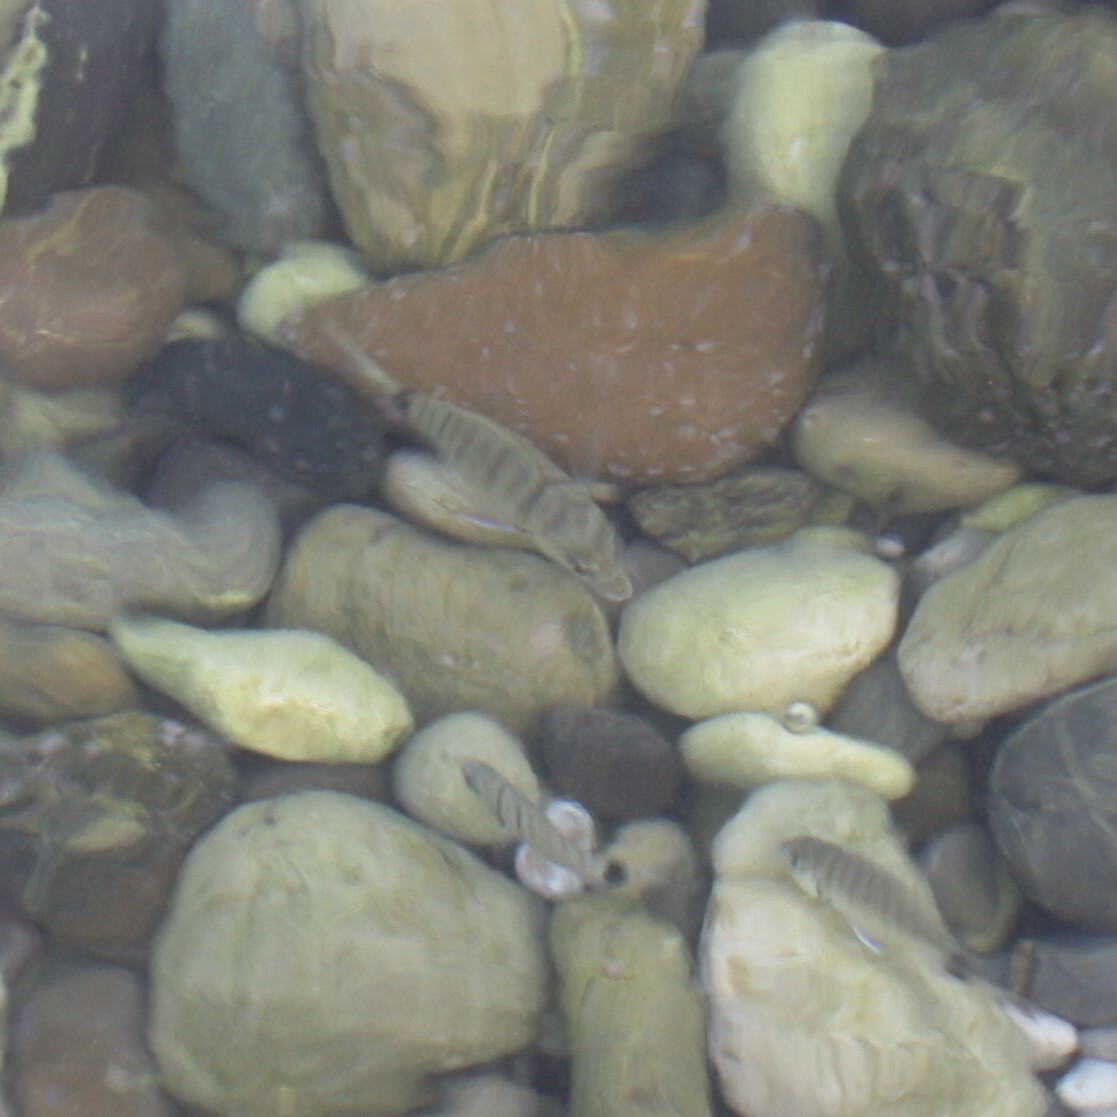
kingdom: Animalia
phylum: Chordata
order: Perciformes
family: Sparidae
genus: Diplodus
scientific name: Diplodus
